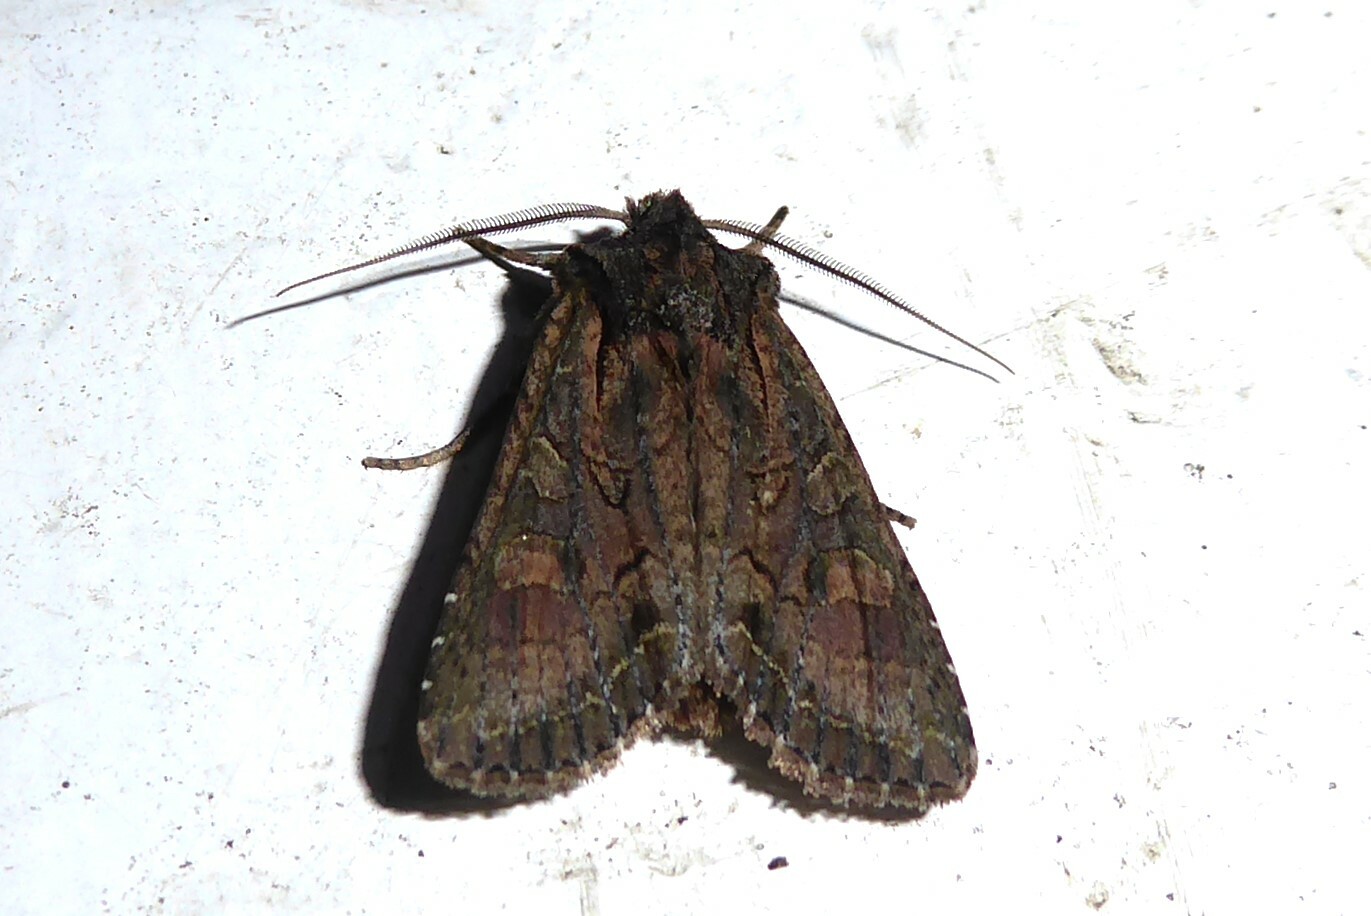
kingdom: Animalia
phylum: Arthropoda
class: Insecta
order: Lepidoptera
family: Noctuidae
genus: Ichneutica
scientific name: Ichneutica mutans
